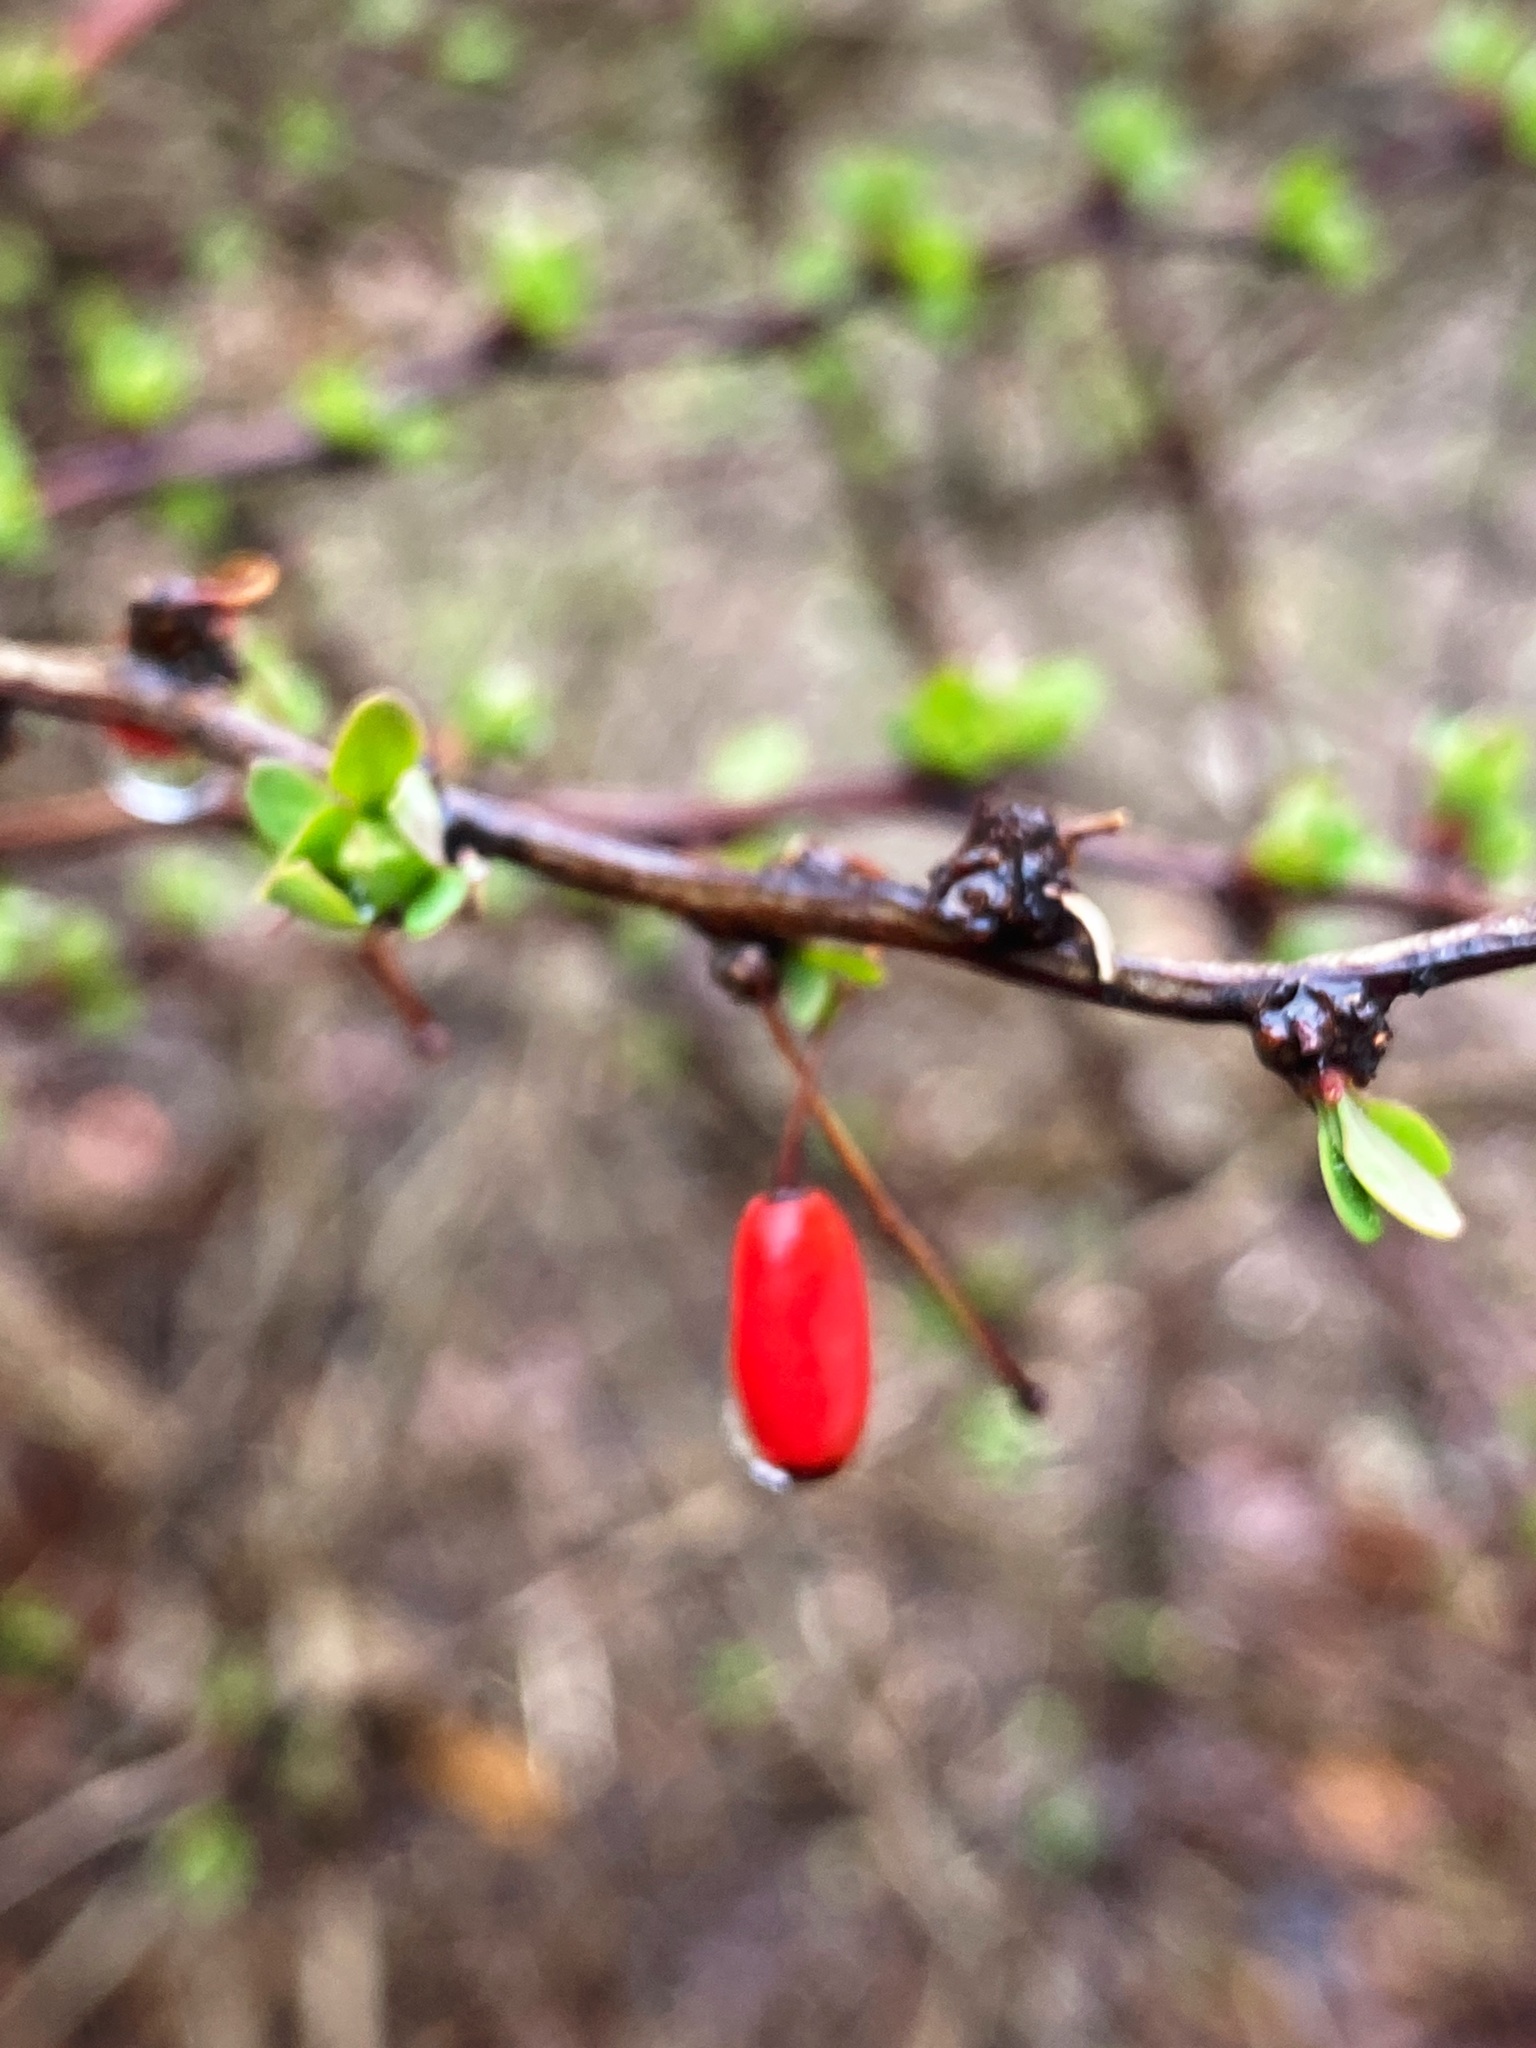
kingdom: Plantae
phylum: Tracheophyta
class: Magnoliopsida
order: Ranunculales
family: Berberidaceae
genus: Berberis
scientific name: Berberis thunbergii
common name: Japanese barberry
